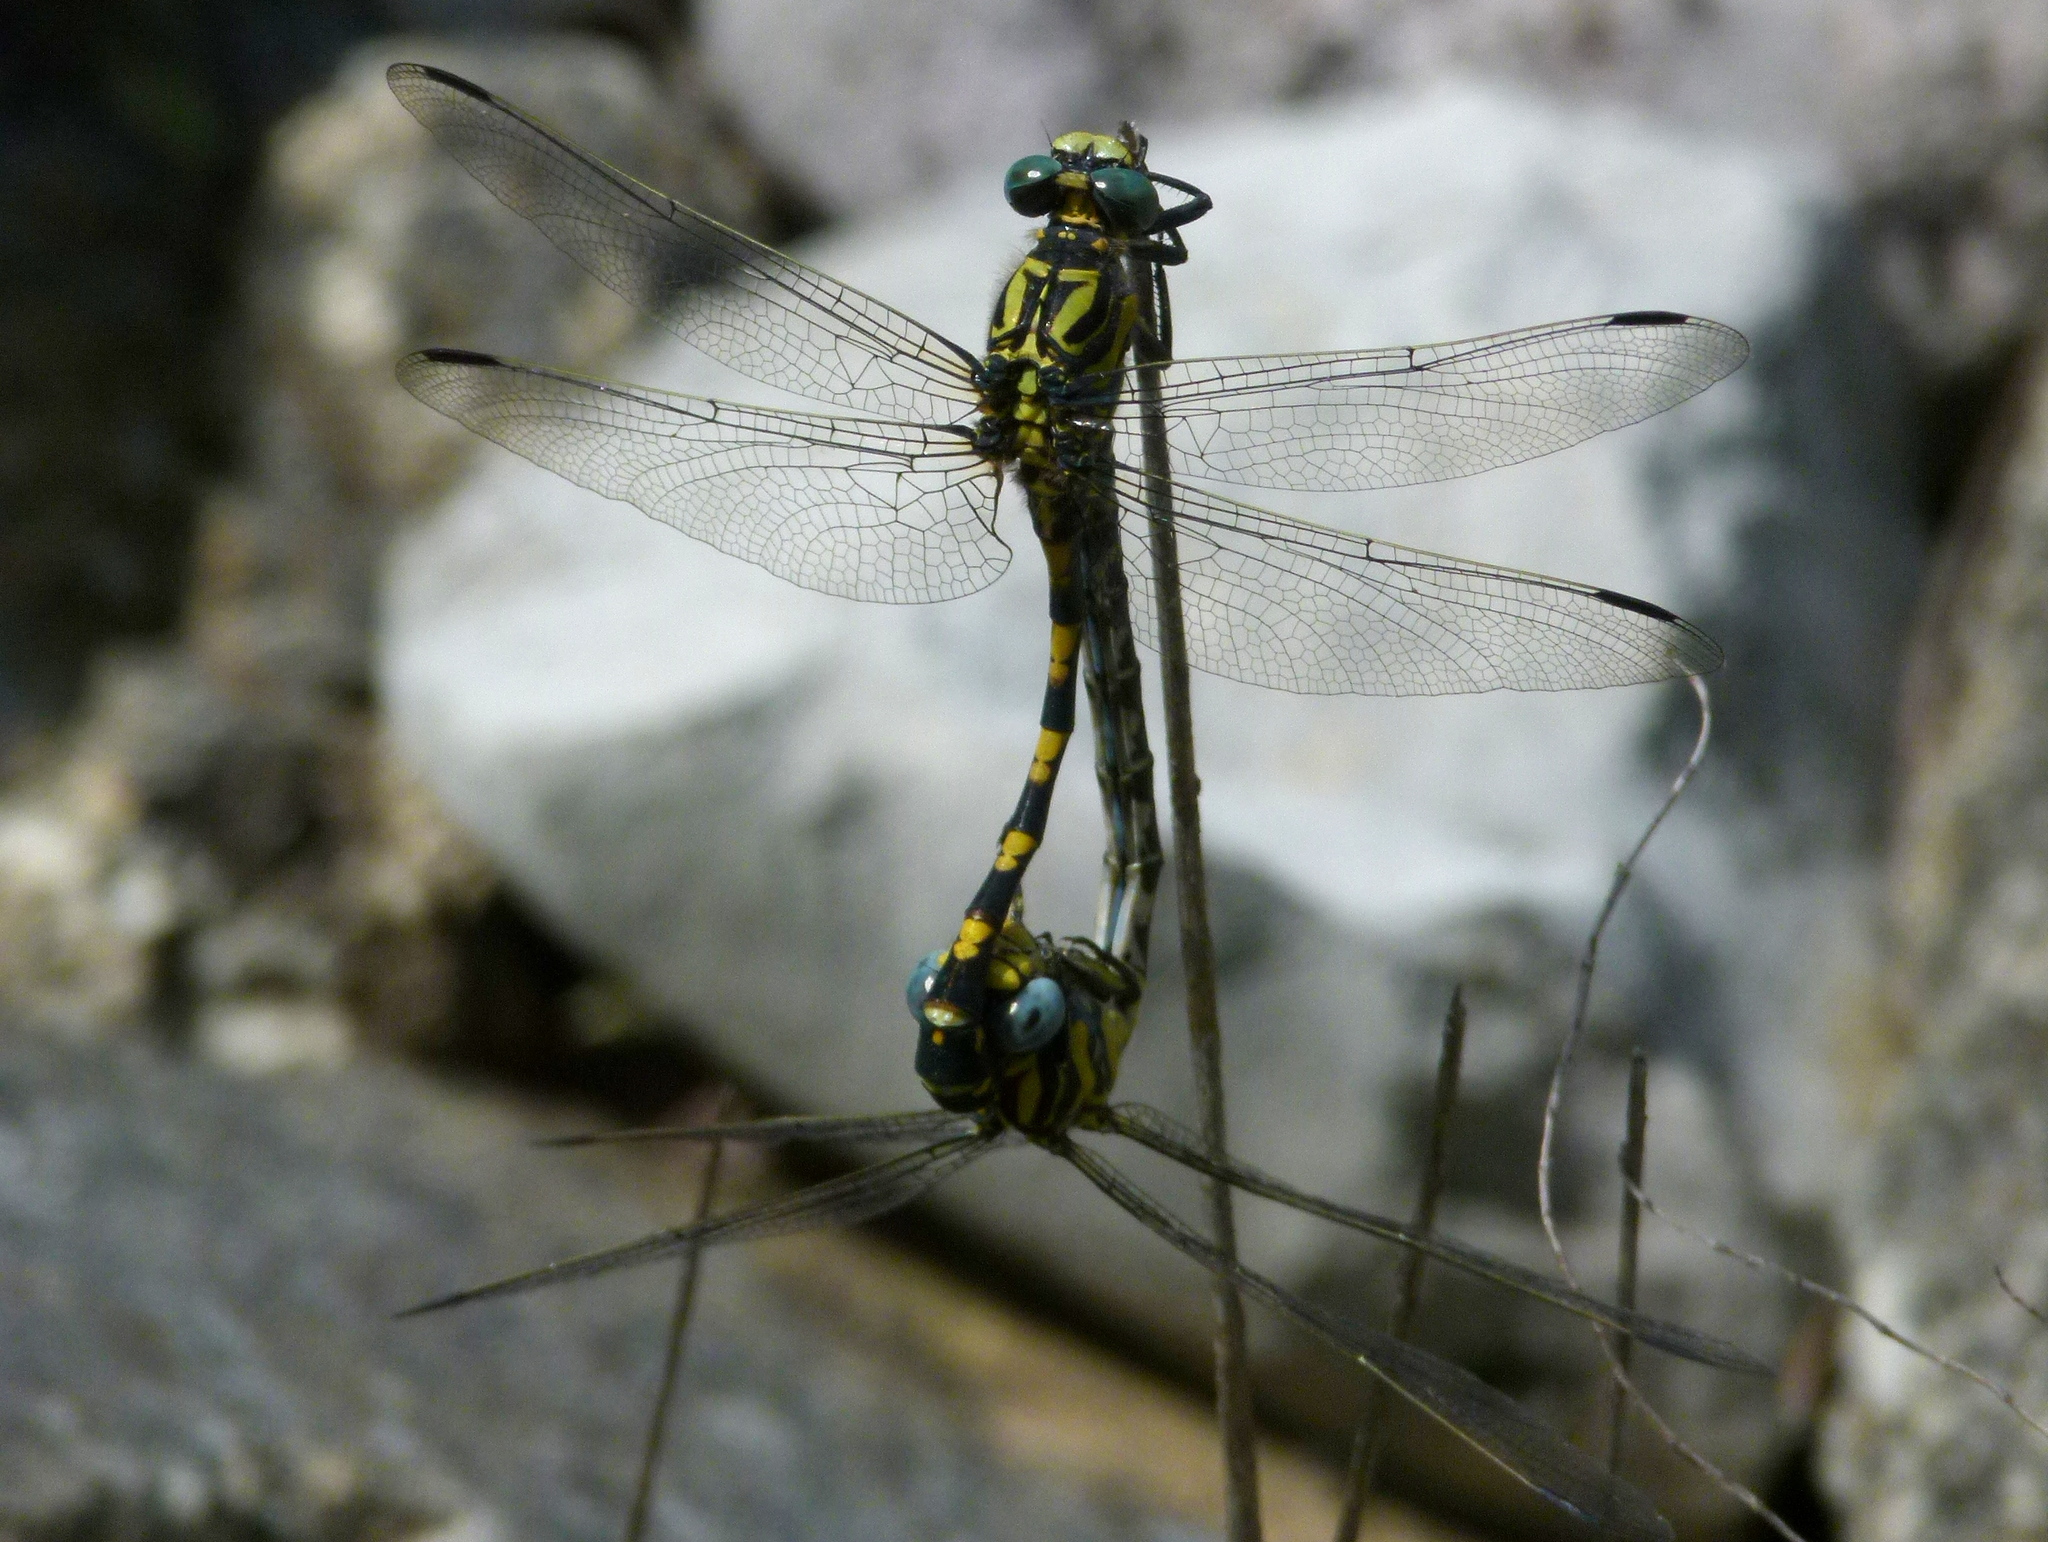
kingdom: Animalia
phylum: Arthropoda
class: Insecta
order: Odonata
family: Gomphidae
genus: Onychogomphus
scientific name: Onychogomphus uncatus
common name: Large pincertail
